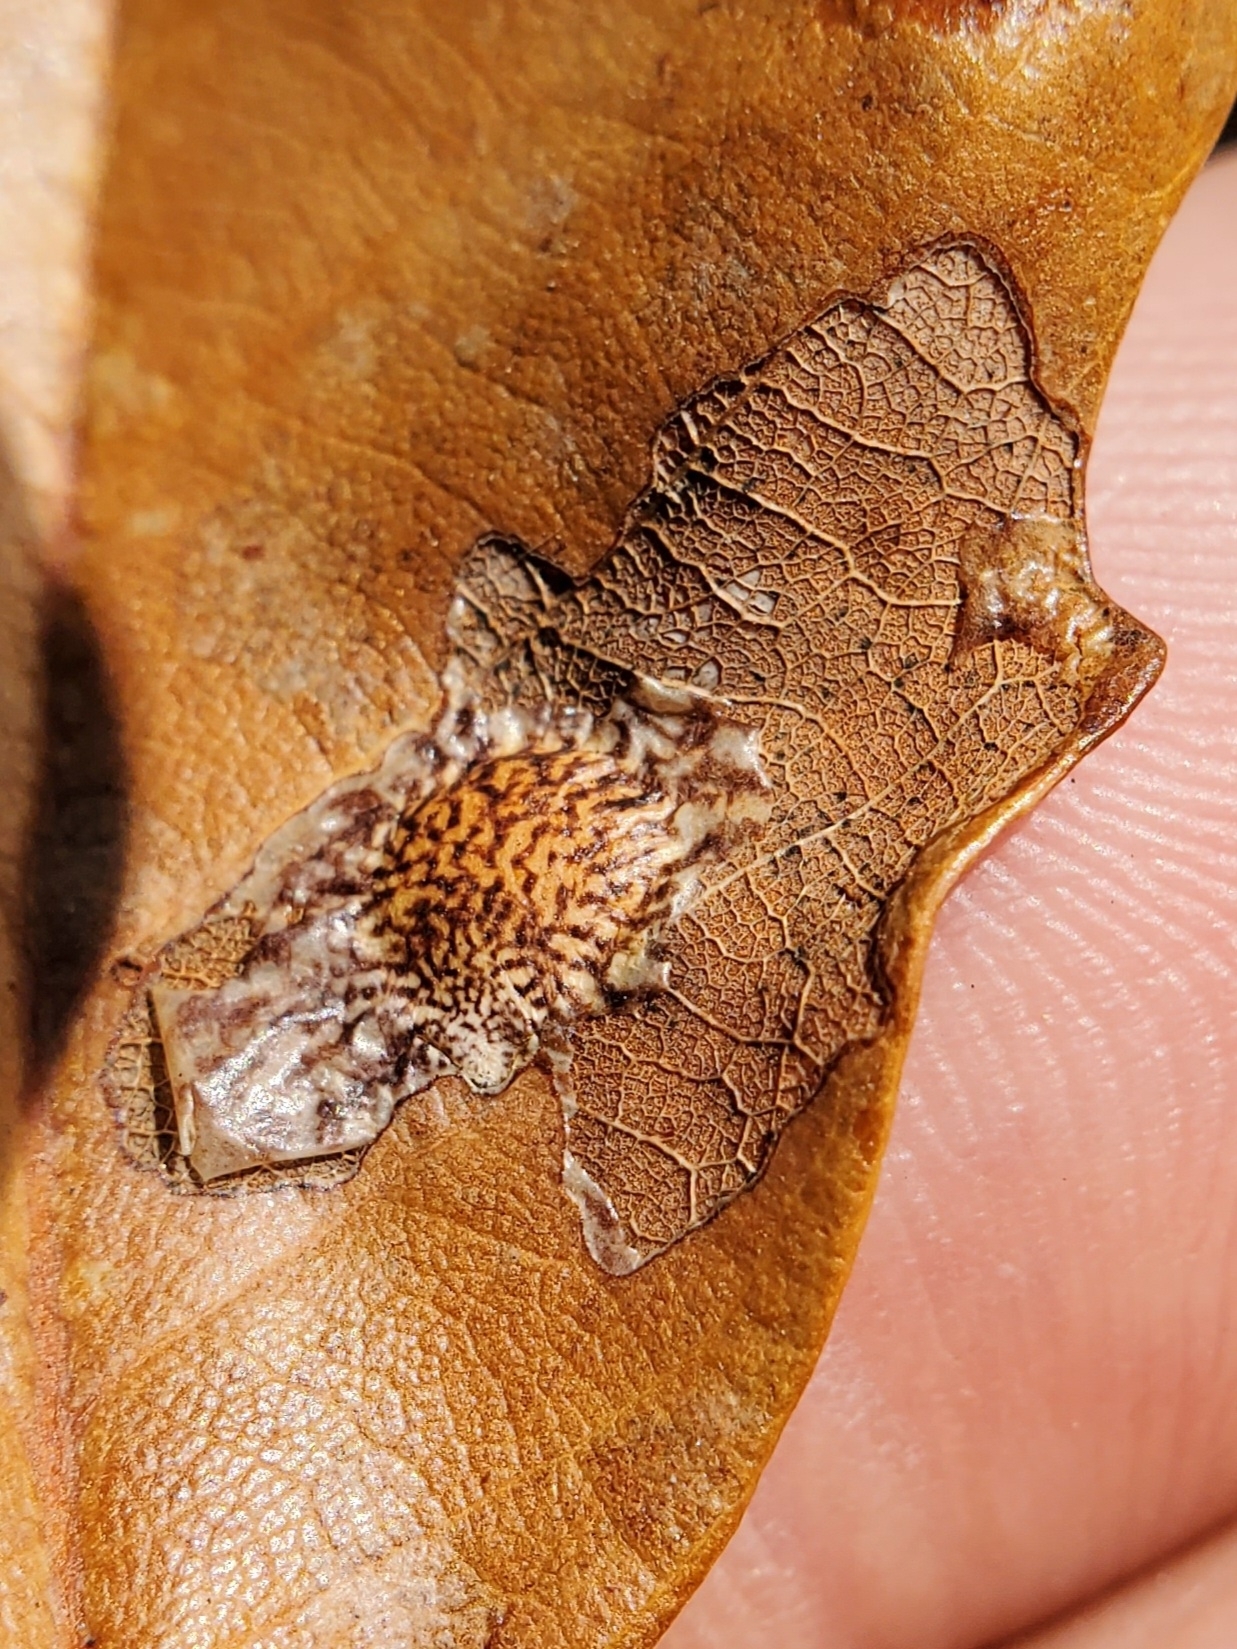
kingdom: Animalia
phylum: Arthropoda
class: Insecta
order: Lepidoptera
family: Tischeriidae
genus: Tischeria
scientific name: Tischeria quercitella
